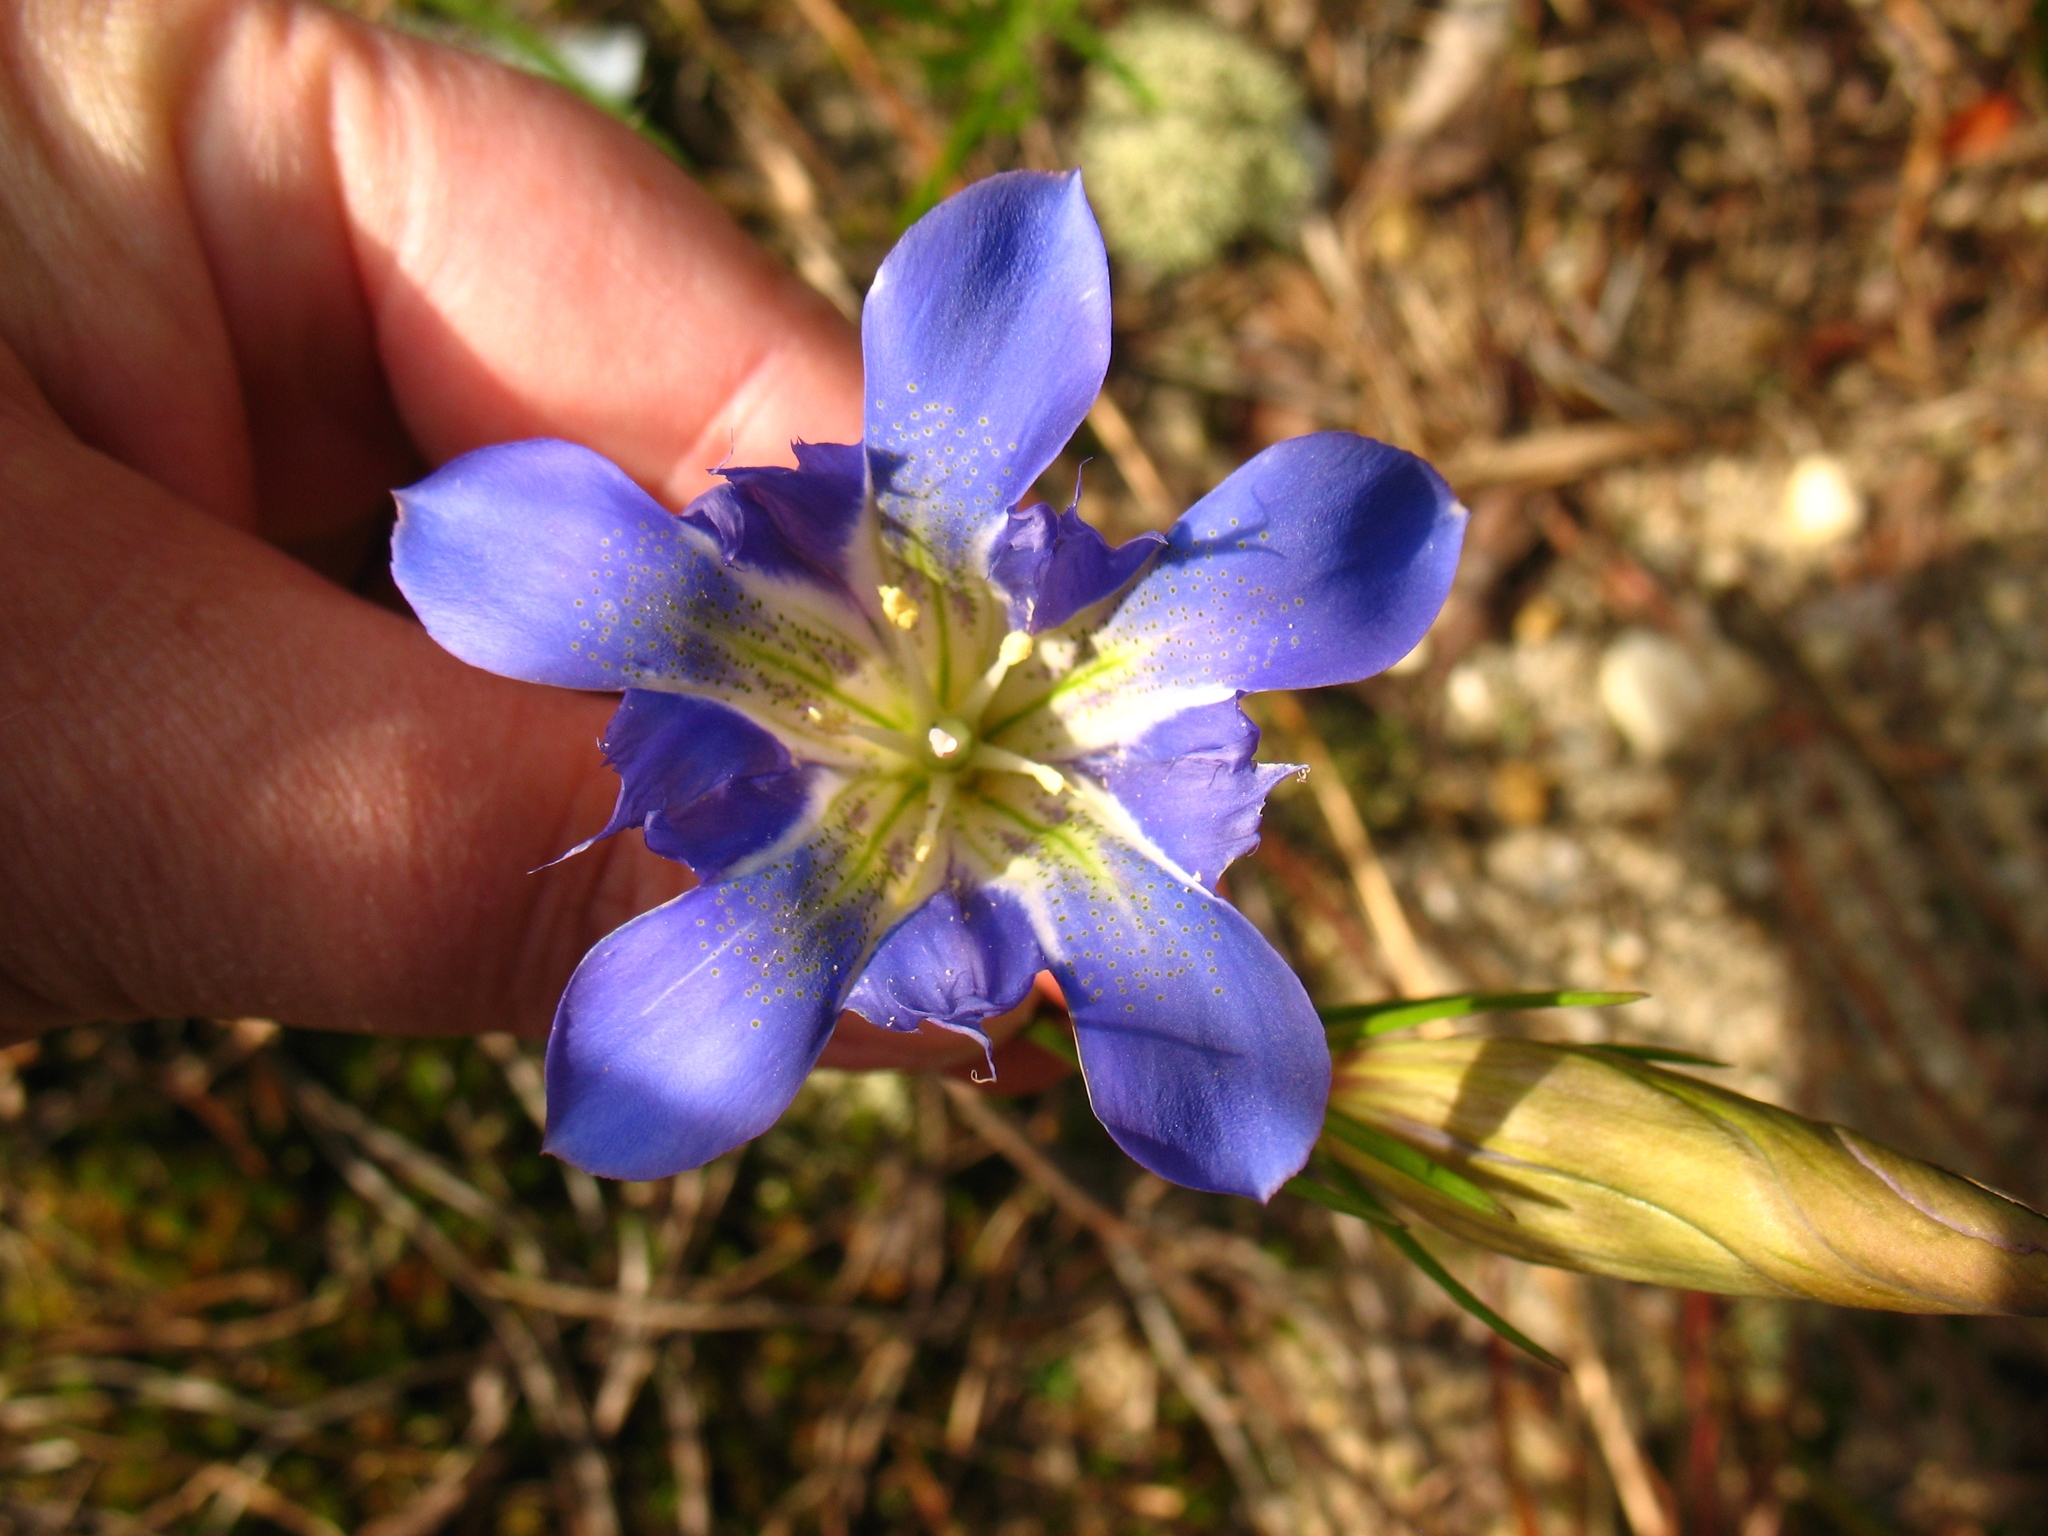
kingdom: Plantae
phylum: Tracheophyta
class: Magnoliopsida
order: Gentianales
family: Gentianaceae
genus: Gentiana
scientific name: Gentiana autumnalis
